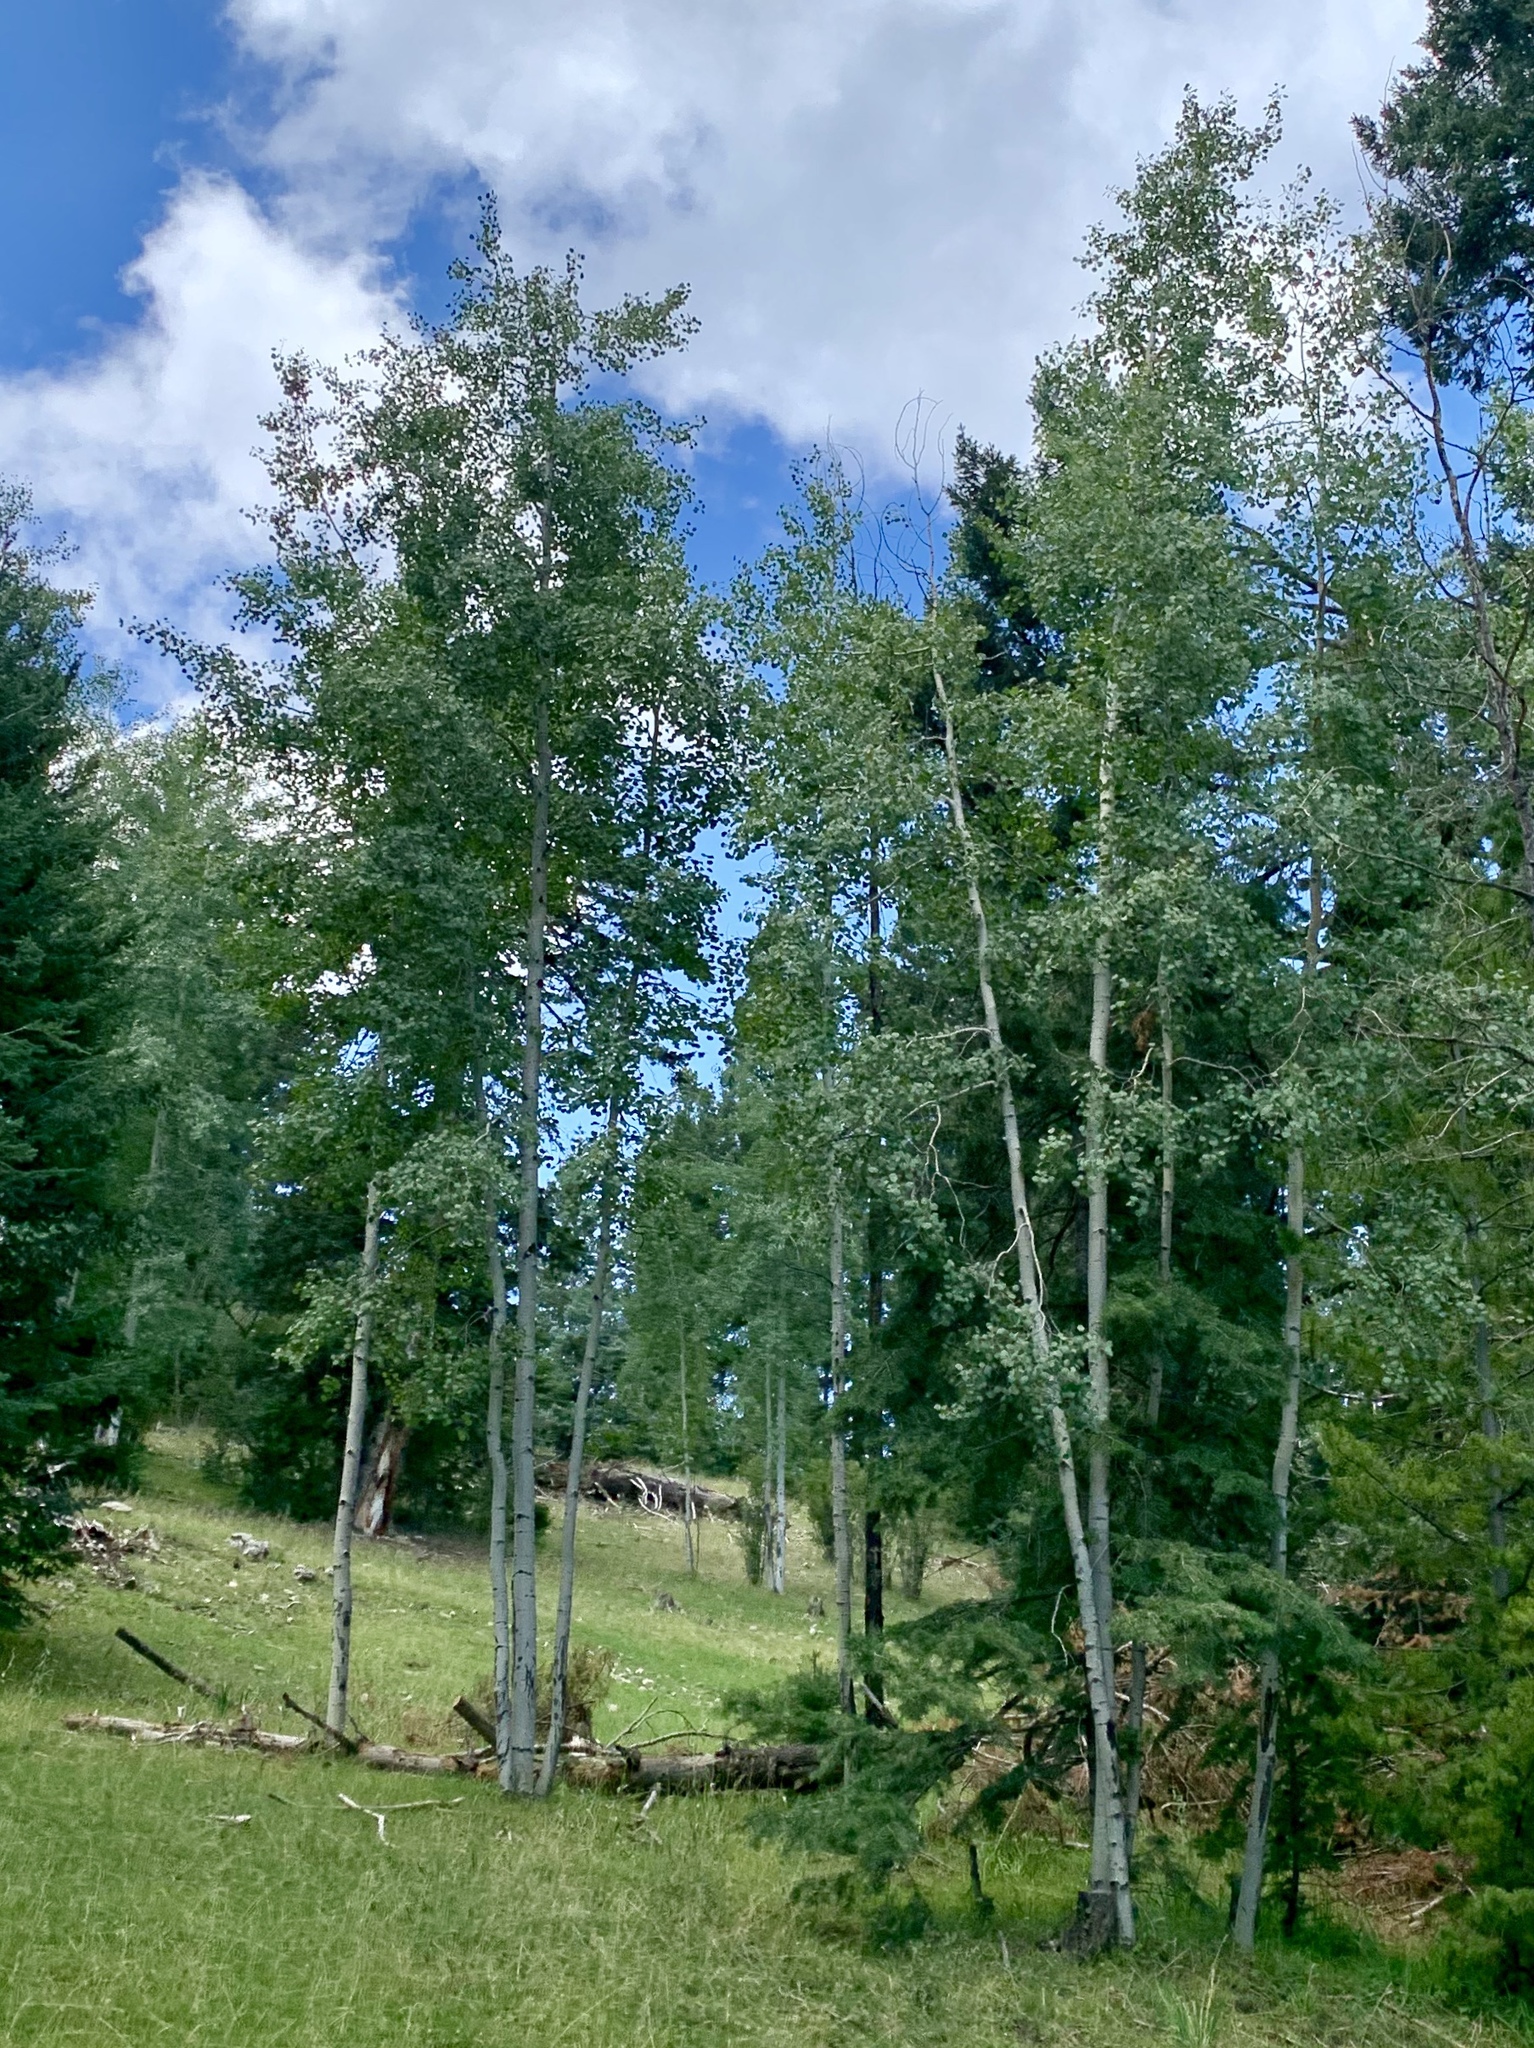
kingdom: Plantae
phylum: Tracheophyta
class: Magnoliopsida
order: Malpighiales
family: Salicaceae
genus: Populus
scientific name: Populus tremuloides
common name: Quaking aspen
